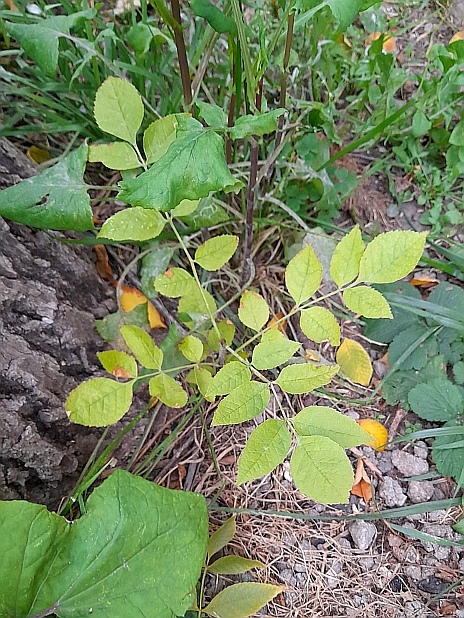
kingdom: Plantae
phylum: Tracheophyta
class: Magnoliopsida
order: Lamiales
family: Oleaceae
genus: Fraxinus
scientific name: Fraxinus pennsylvanica
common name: Green ash
